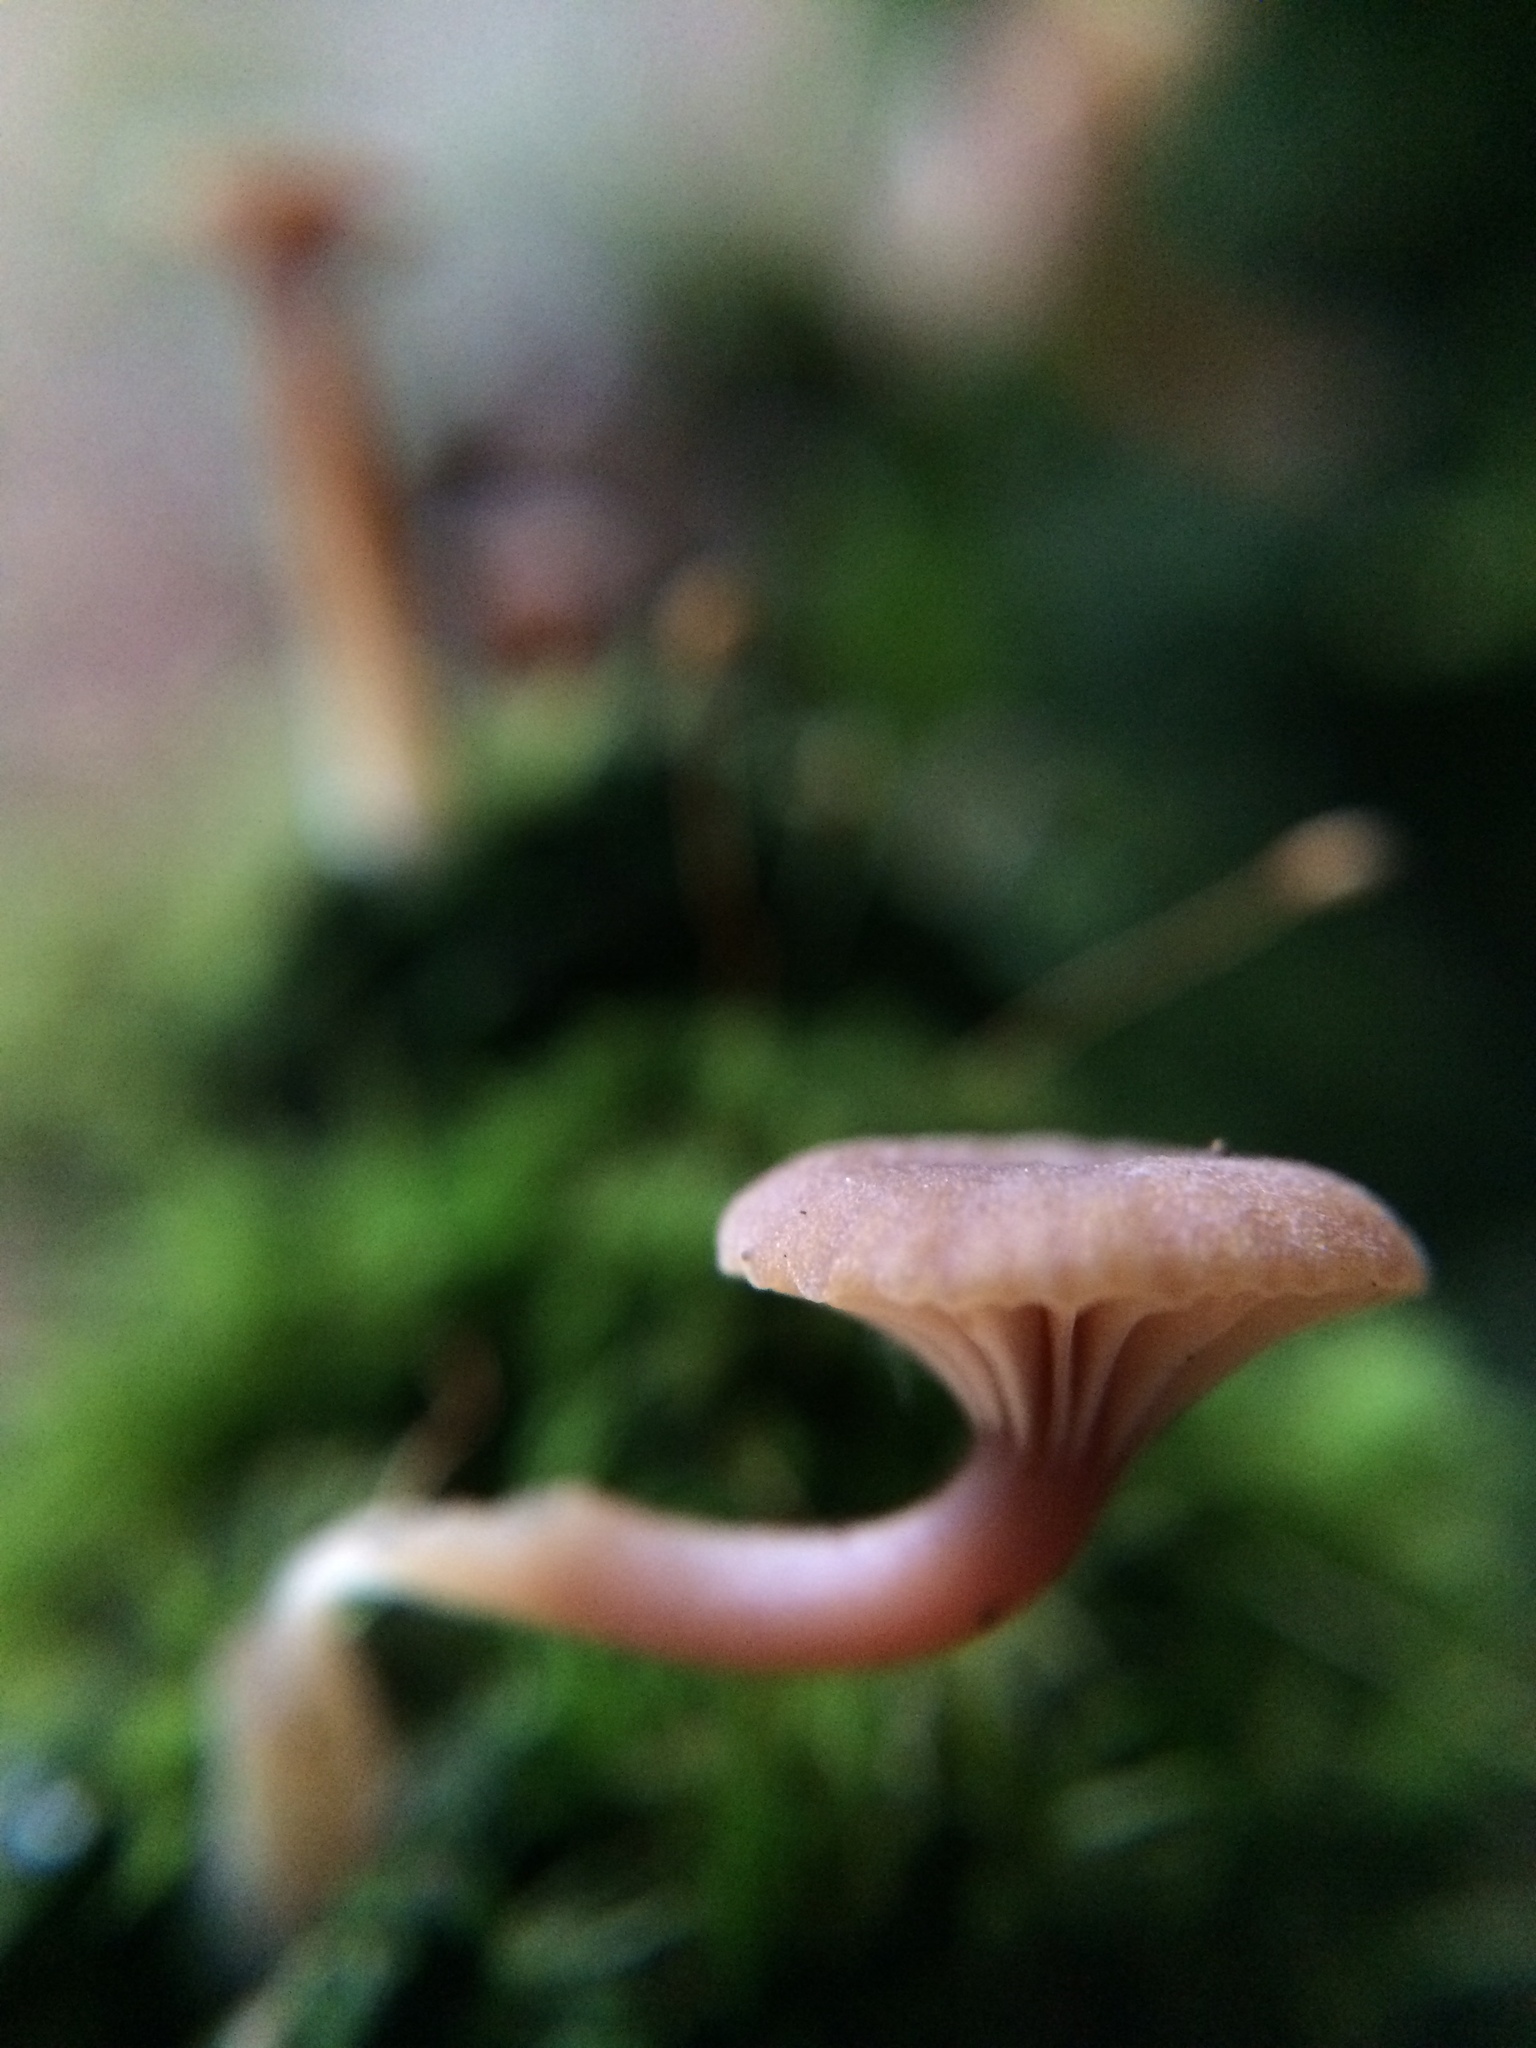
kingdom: Fungi
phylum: Basidiomycota
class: Agaricomycetes
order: Agaricales
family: Hygrophoraceae
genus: Lichenomphalia
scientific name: Lichenomphalia
